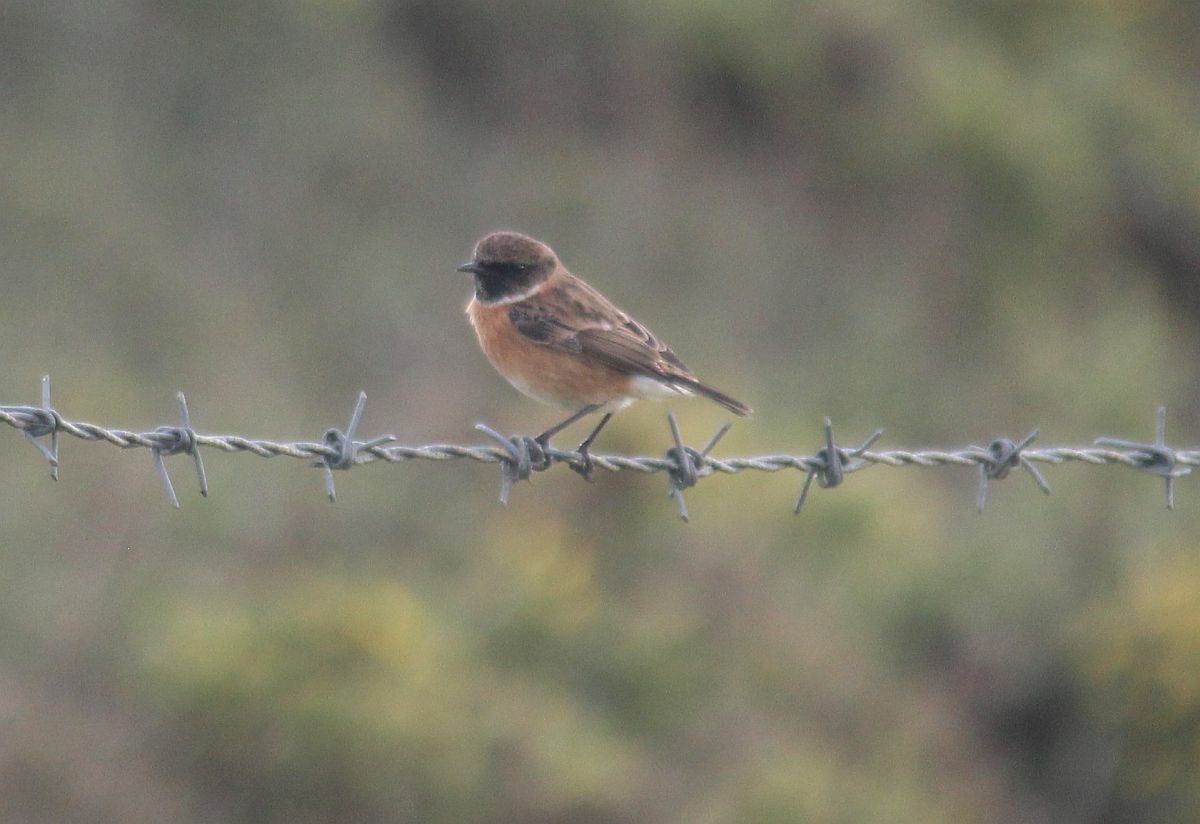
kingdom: Animalia
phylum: Chordata
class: Aves
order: Passeriformes
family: Muscicapidae
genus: Saxicola
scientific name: Saxicola rubicola
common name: European stonechat
